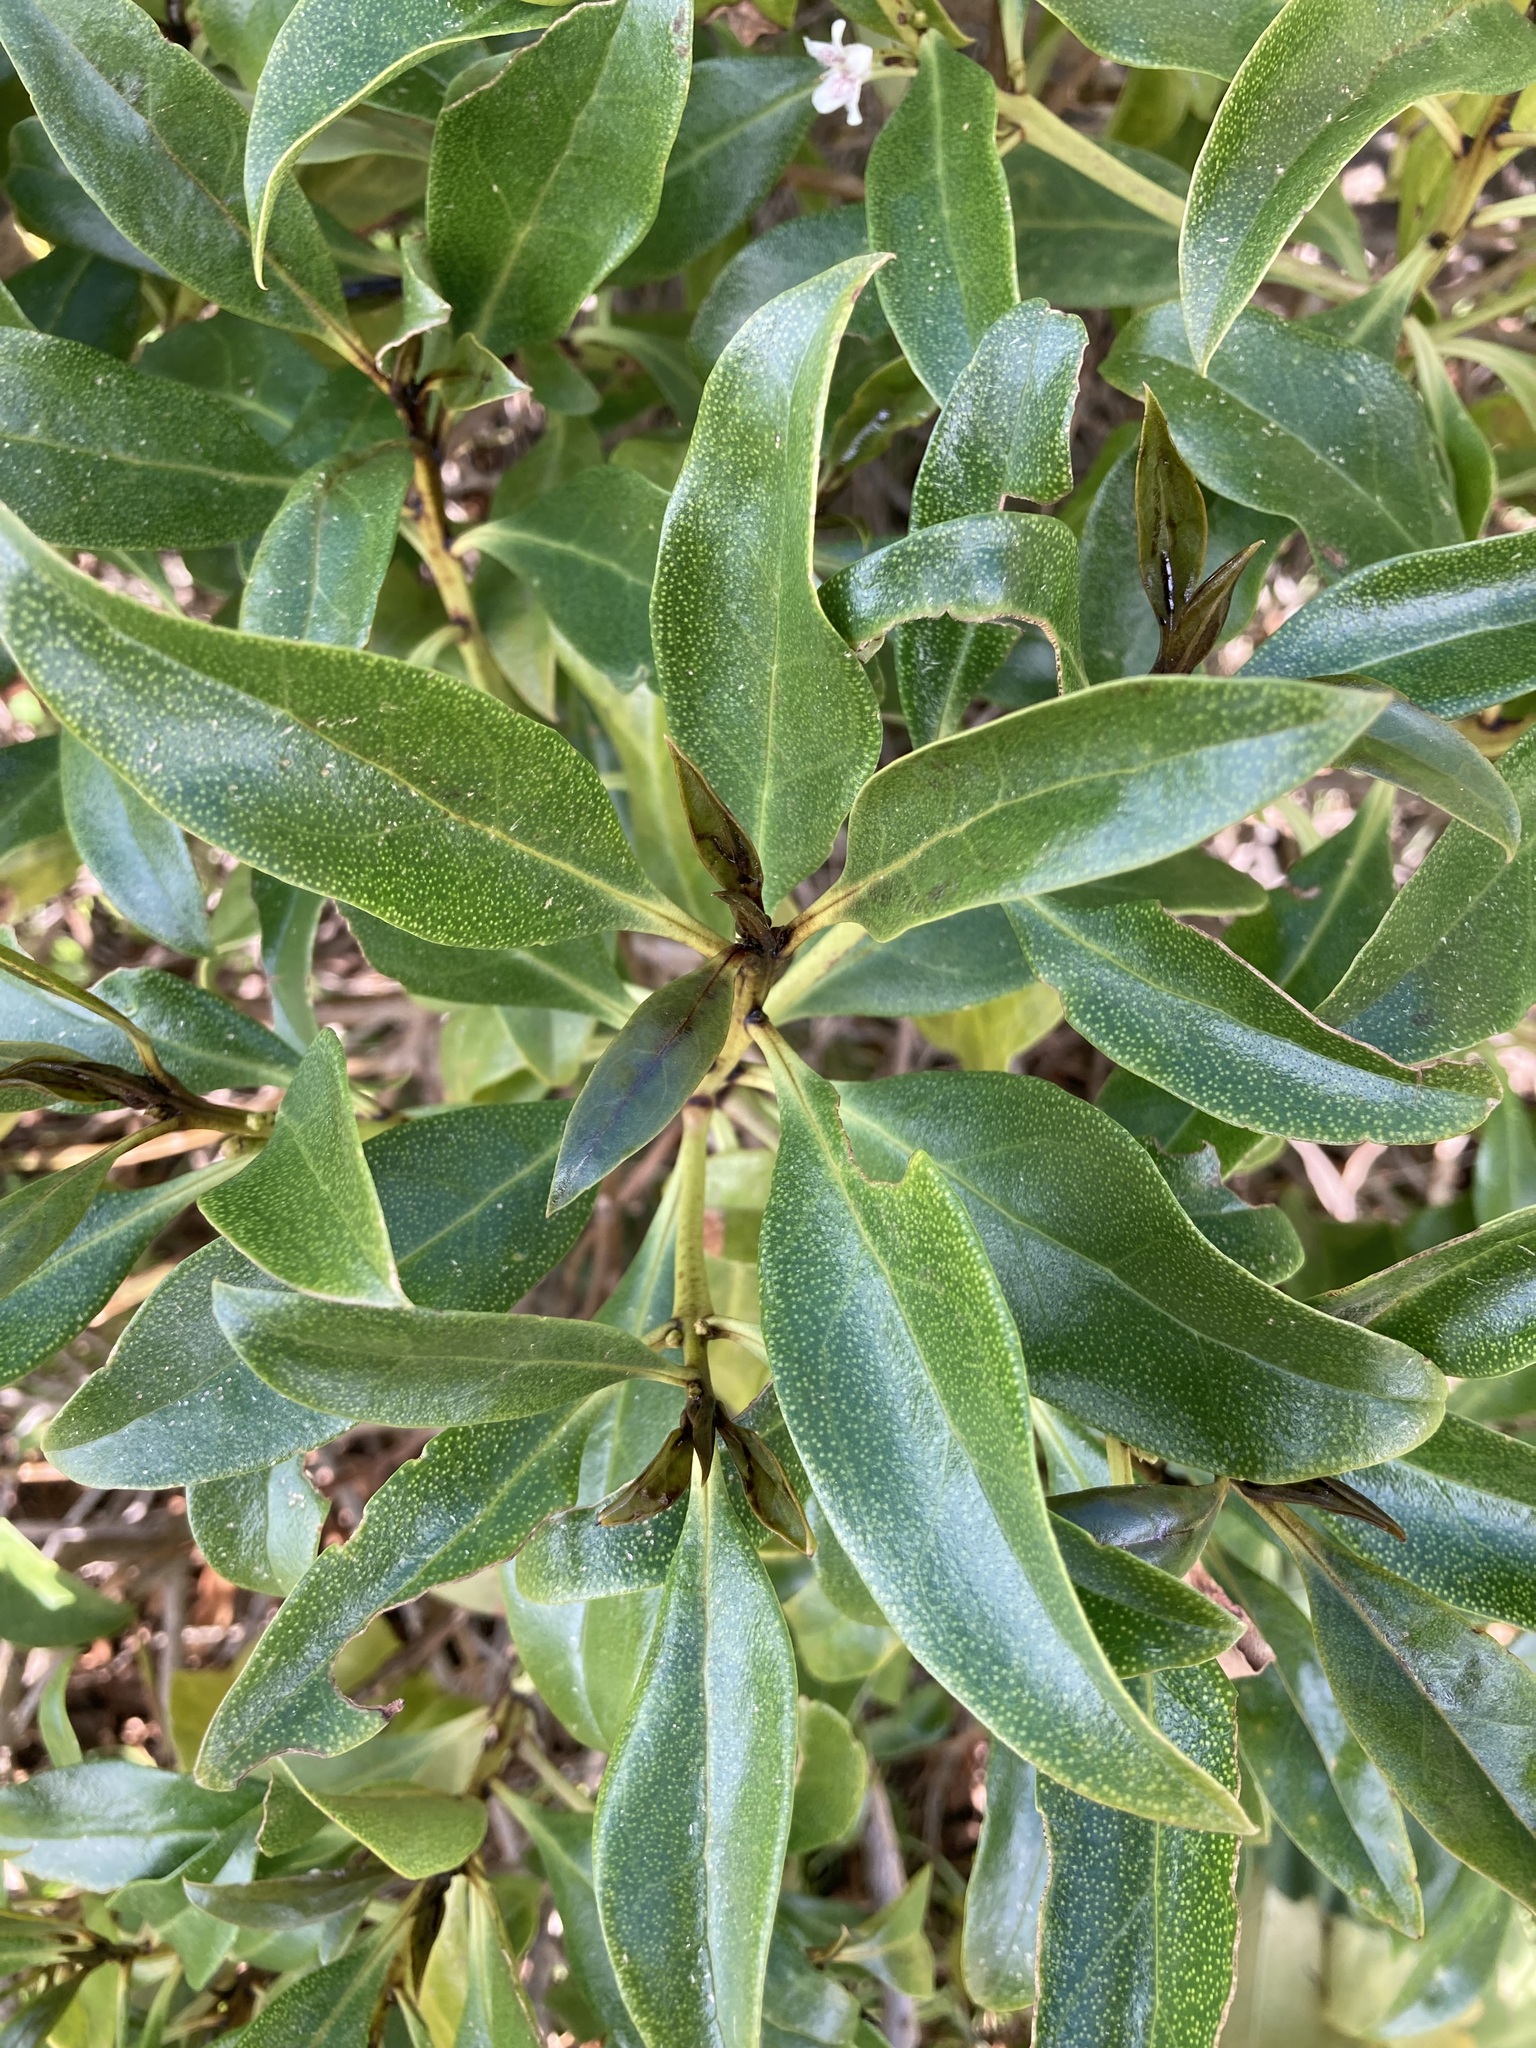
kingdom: Plantae
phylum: Tracheophyta
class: Magnoliopsida
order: Lamiales
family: Scrophulariaceae
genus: Myoporum
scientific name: Myoporum laetum
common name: Ngaio tree
